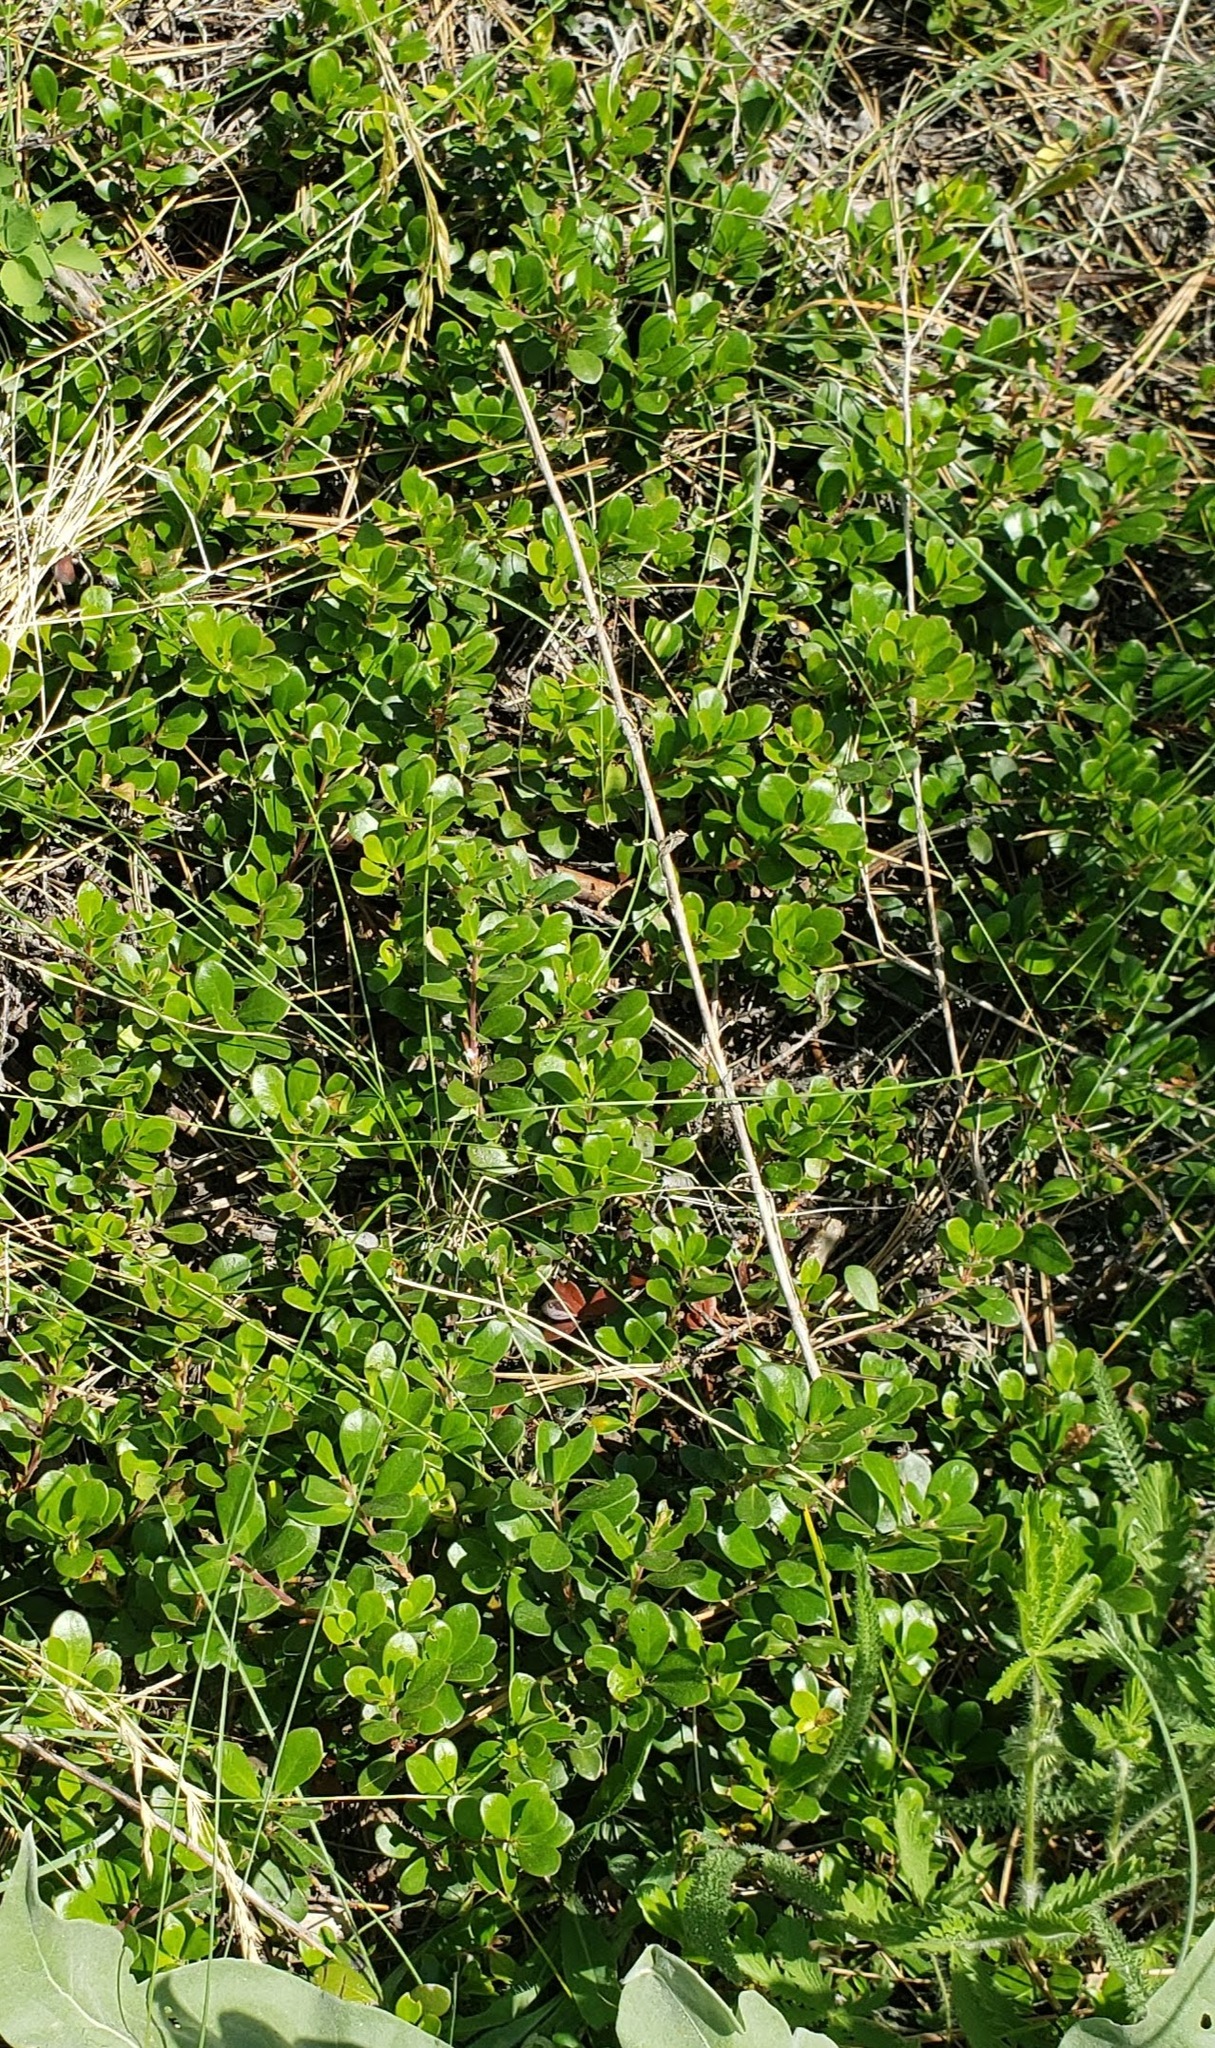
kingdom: Plantae
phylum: Tracheophyta
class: Magnoliopsida
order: Ericales
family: Ericaceae
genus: Arctostaphylos
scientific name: Arctostaphylos uva-ursi
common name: Bearberry
